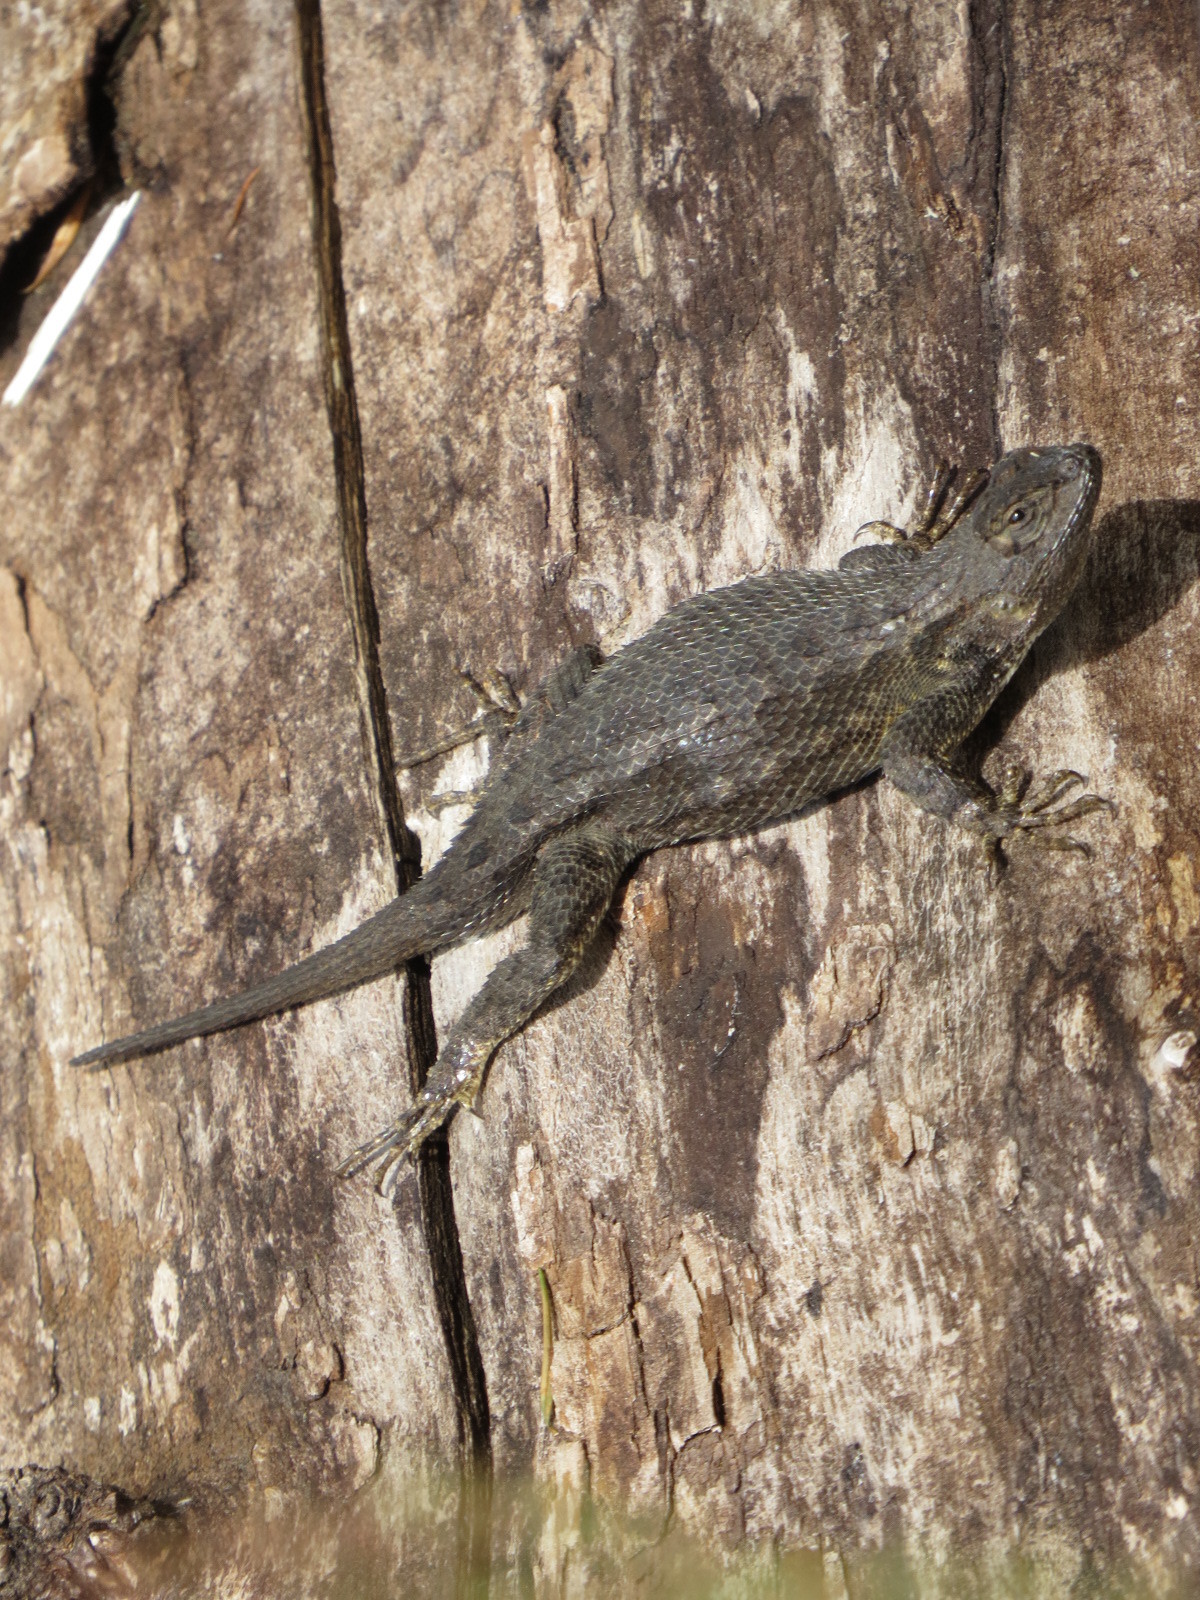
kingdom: Animalia
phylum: Chordata
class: Squamata
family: Phrynosomatidae
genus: Sceloporus
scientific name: Sceloporus occidentalis
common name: Western fence lizard
